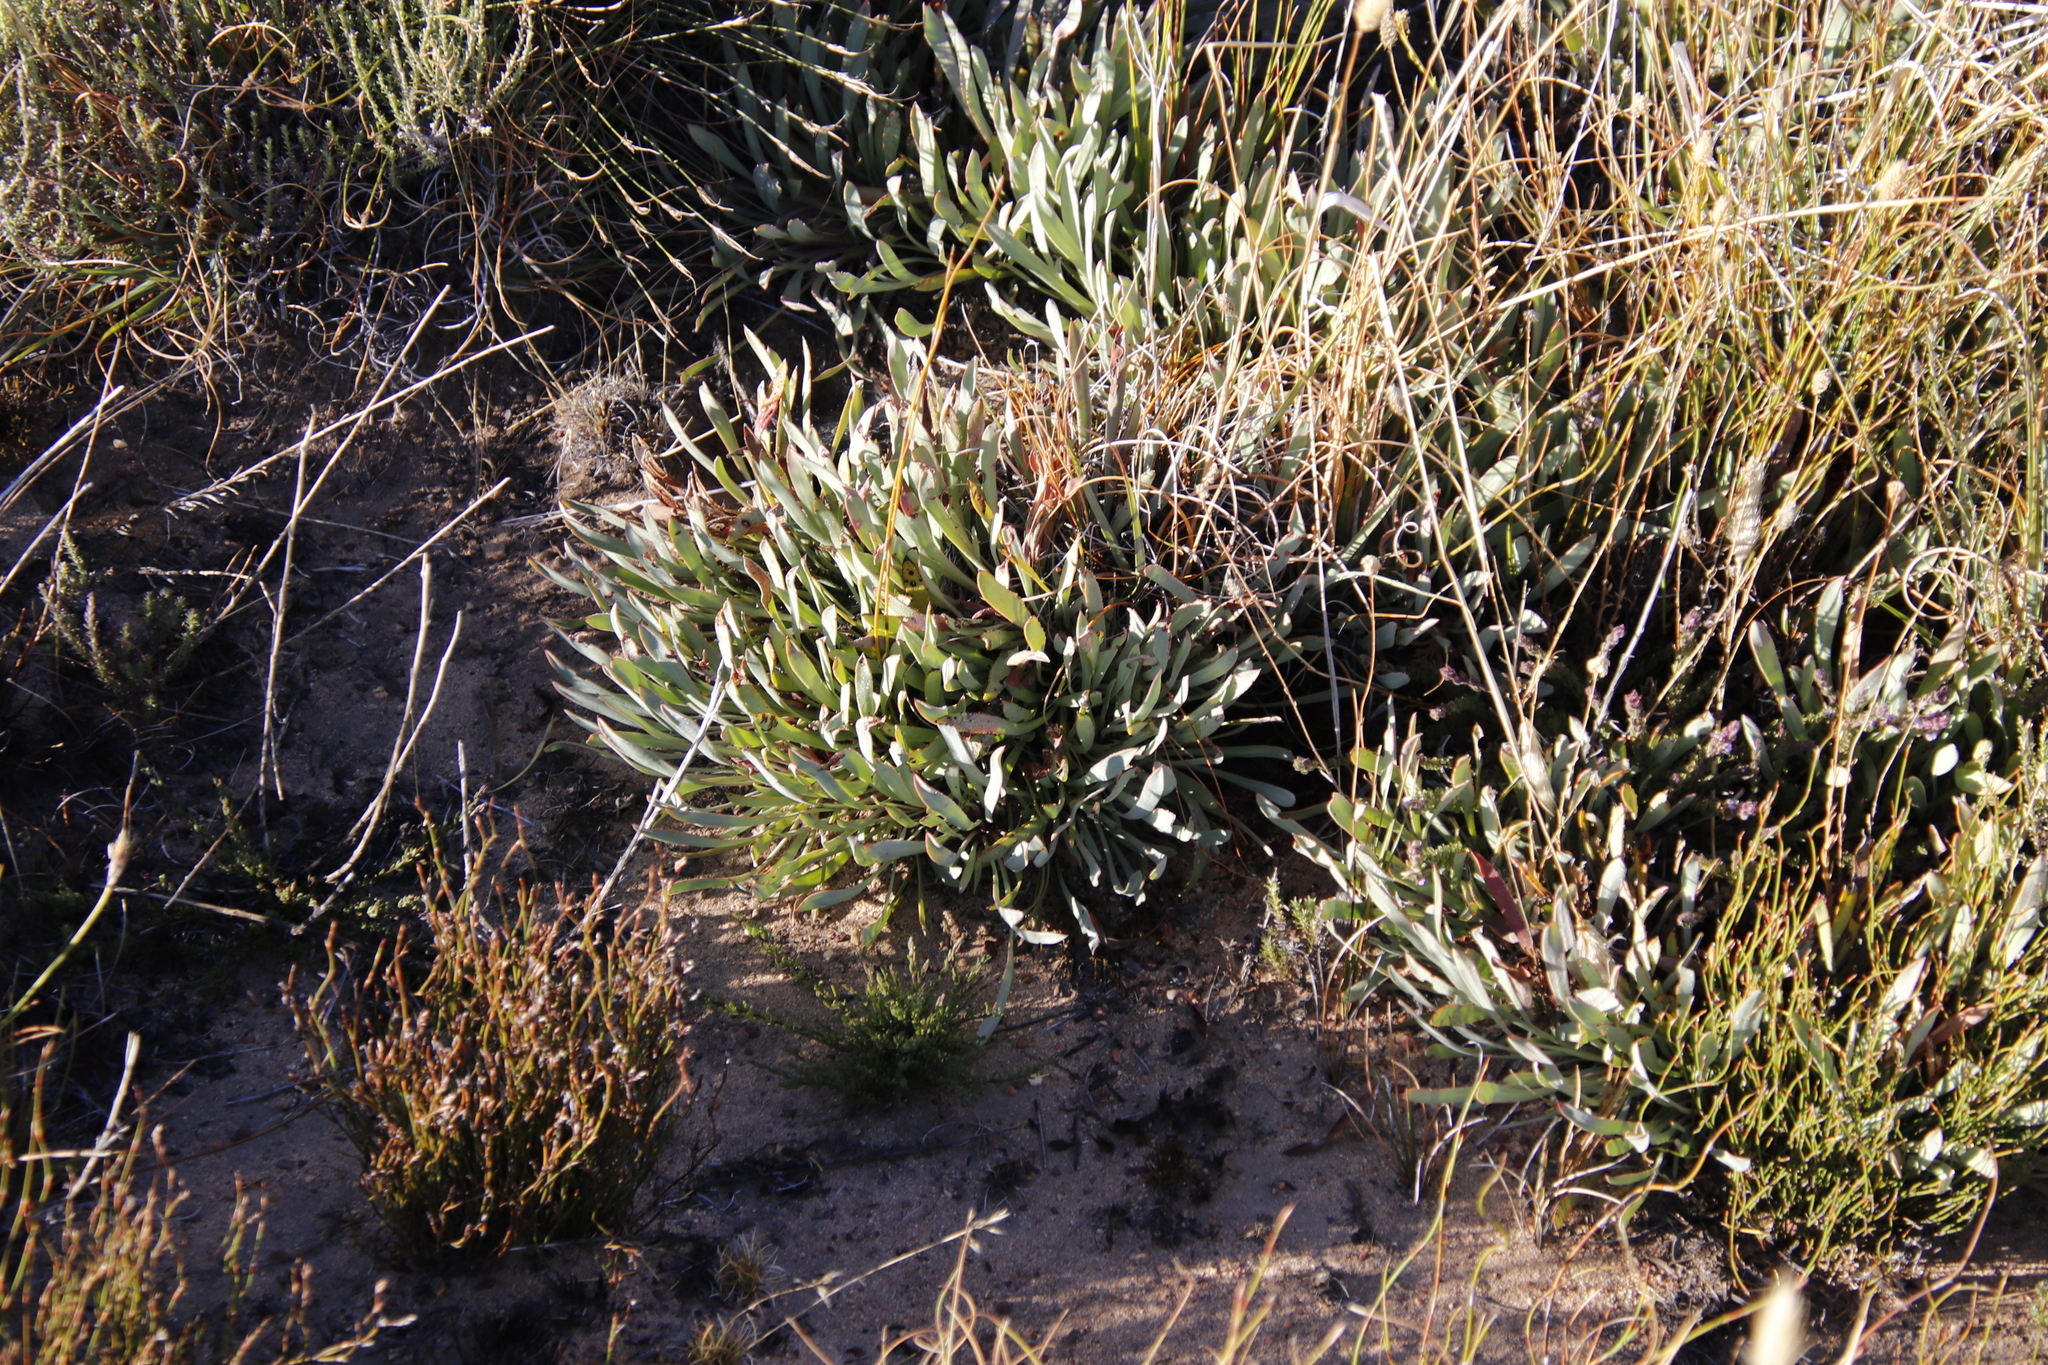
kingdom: Plantae
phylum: Tracheophyta
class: Magnoliopsida
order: Proteales
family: Proteaceae
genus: Protea
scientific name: Protea laevis
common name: Smooth-leaf sugarbush
